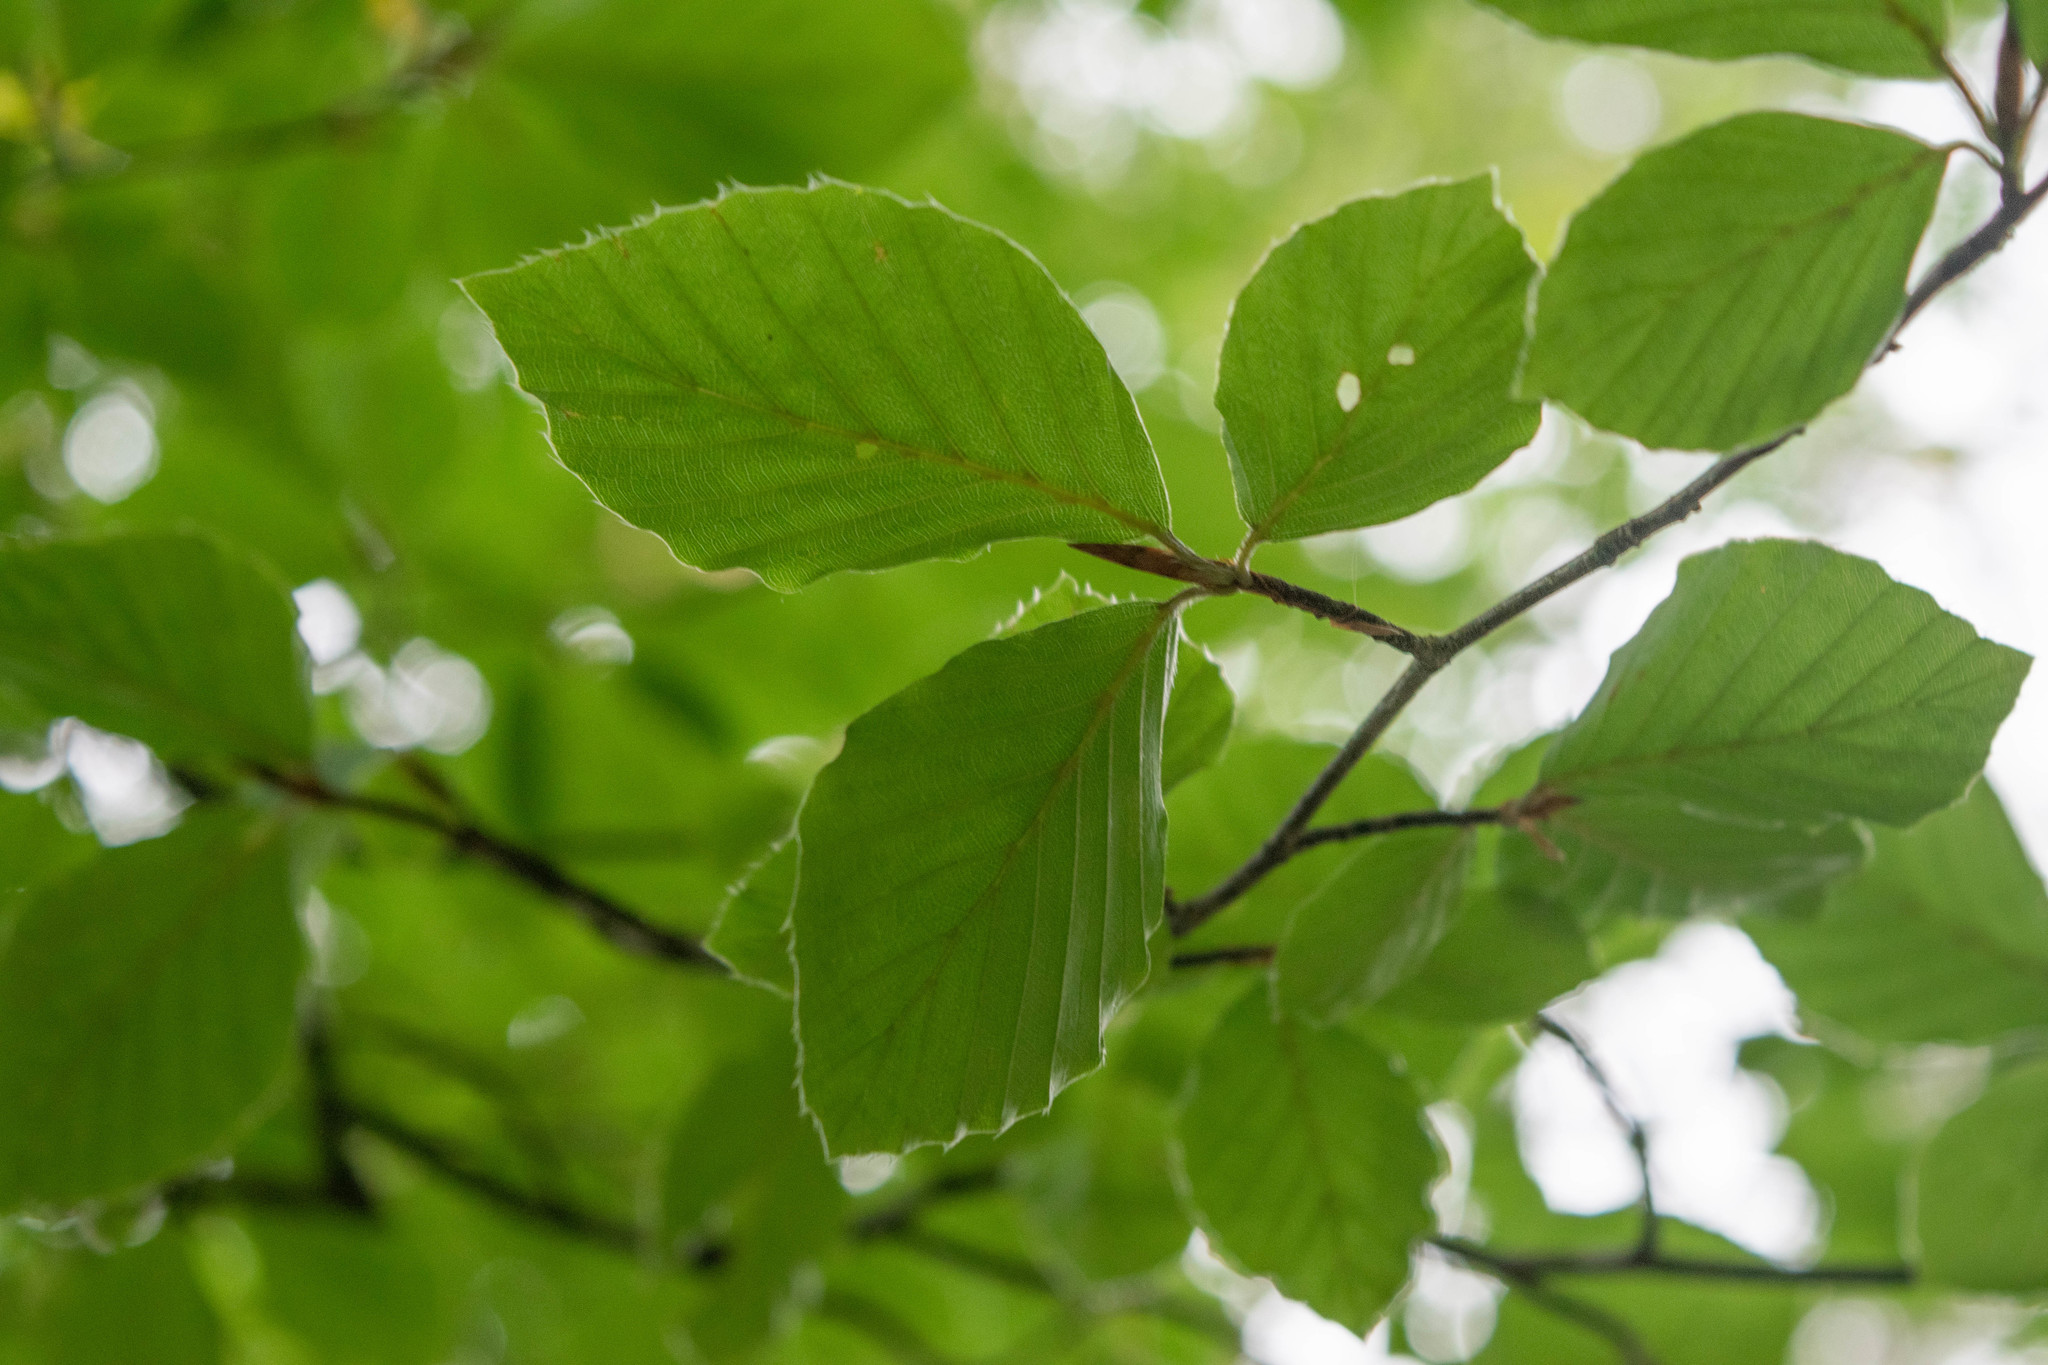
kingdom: Plantae
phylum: Tracheophyta
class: Magnoliopsida
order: Fagales
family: Fagaceae
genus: Fagus
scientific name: Fagus sylvatica
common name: Beech
